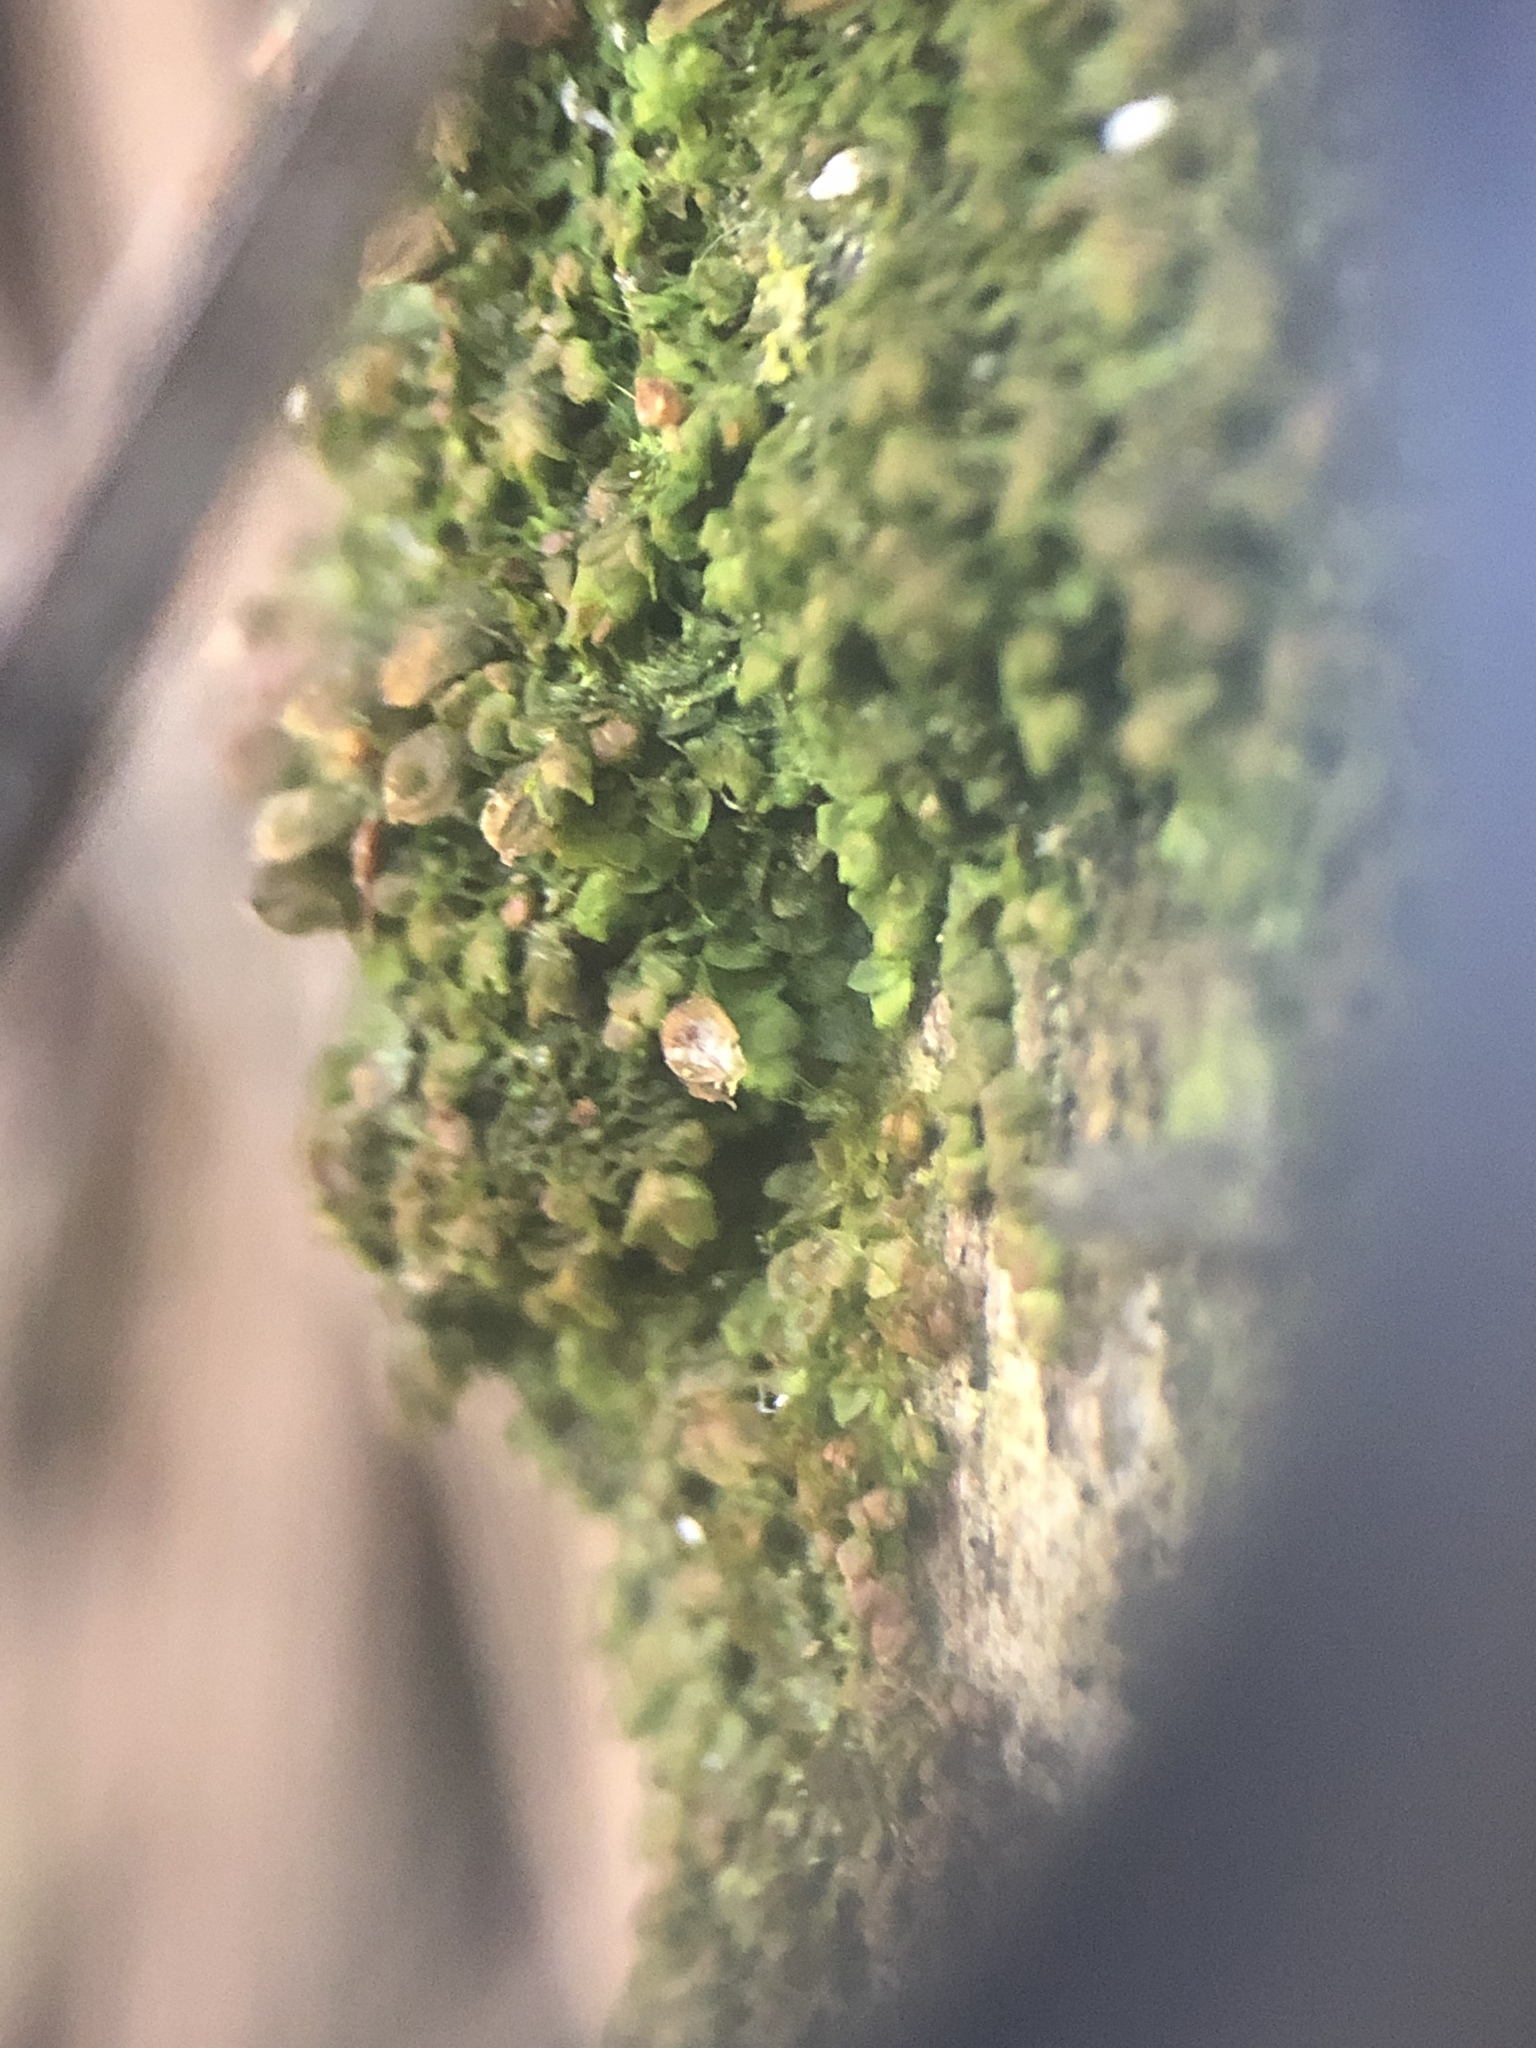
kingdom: Plantae
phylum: Marchantiophyta
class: Jungermanniopsida
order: Porellales
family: Frullaniaceae
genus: Frullania
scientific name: Frullania catalinae
